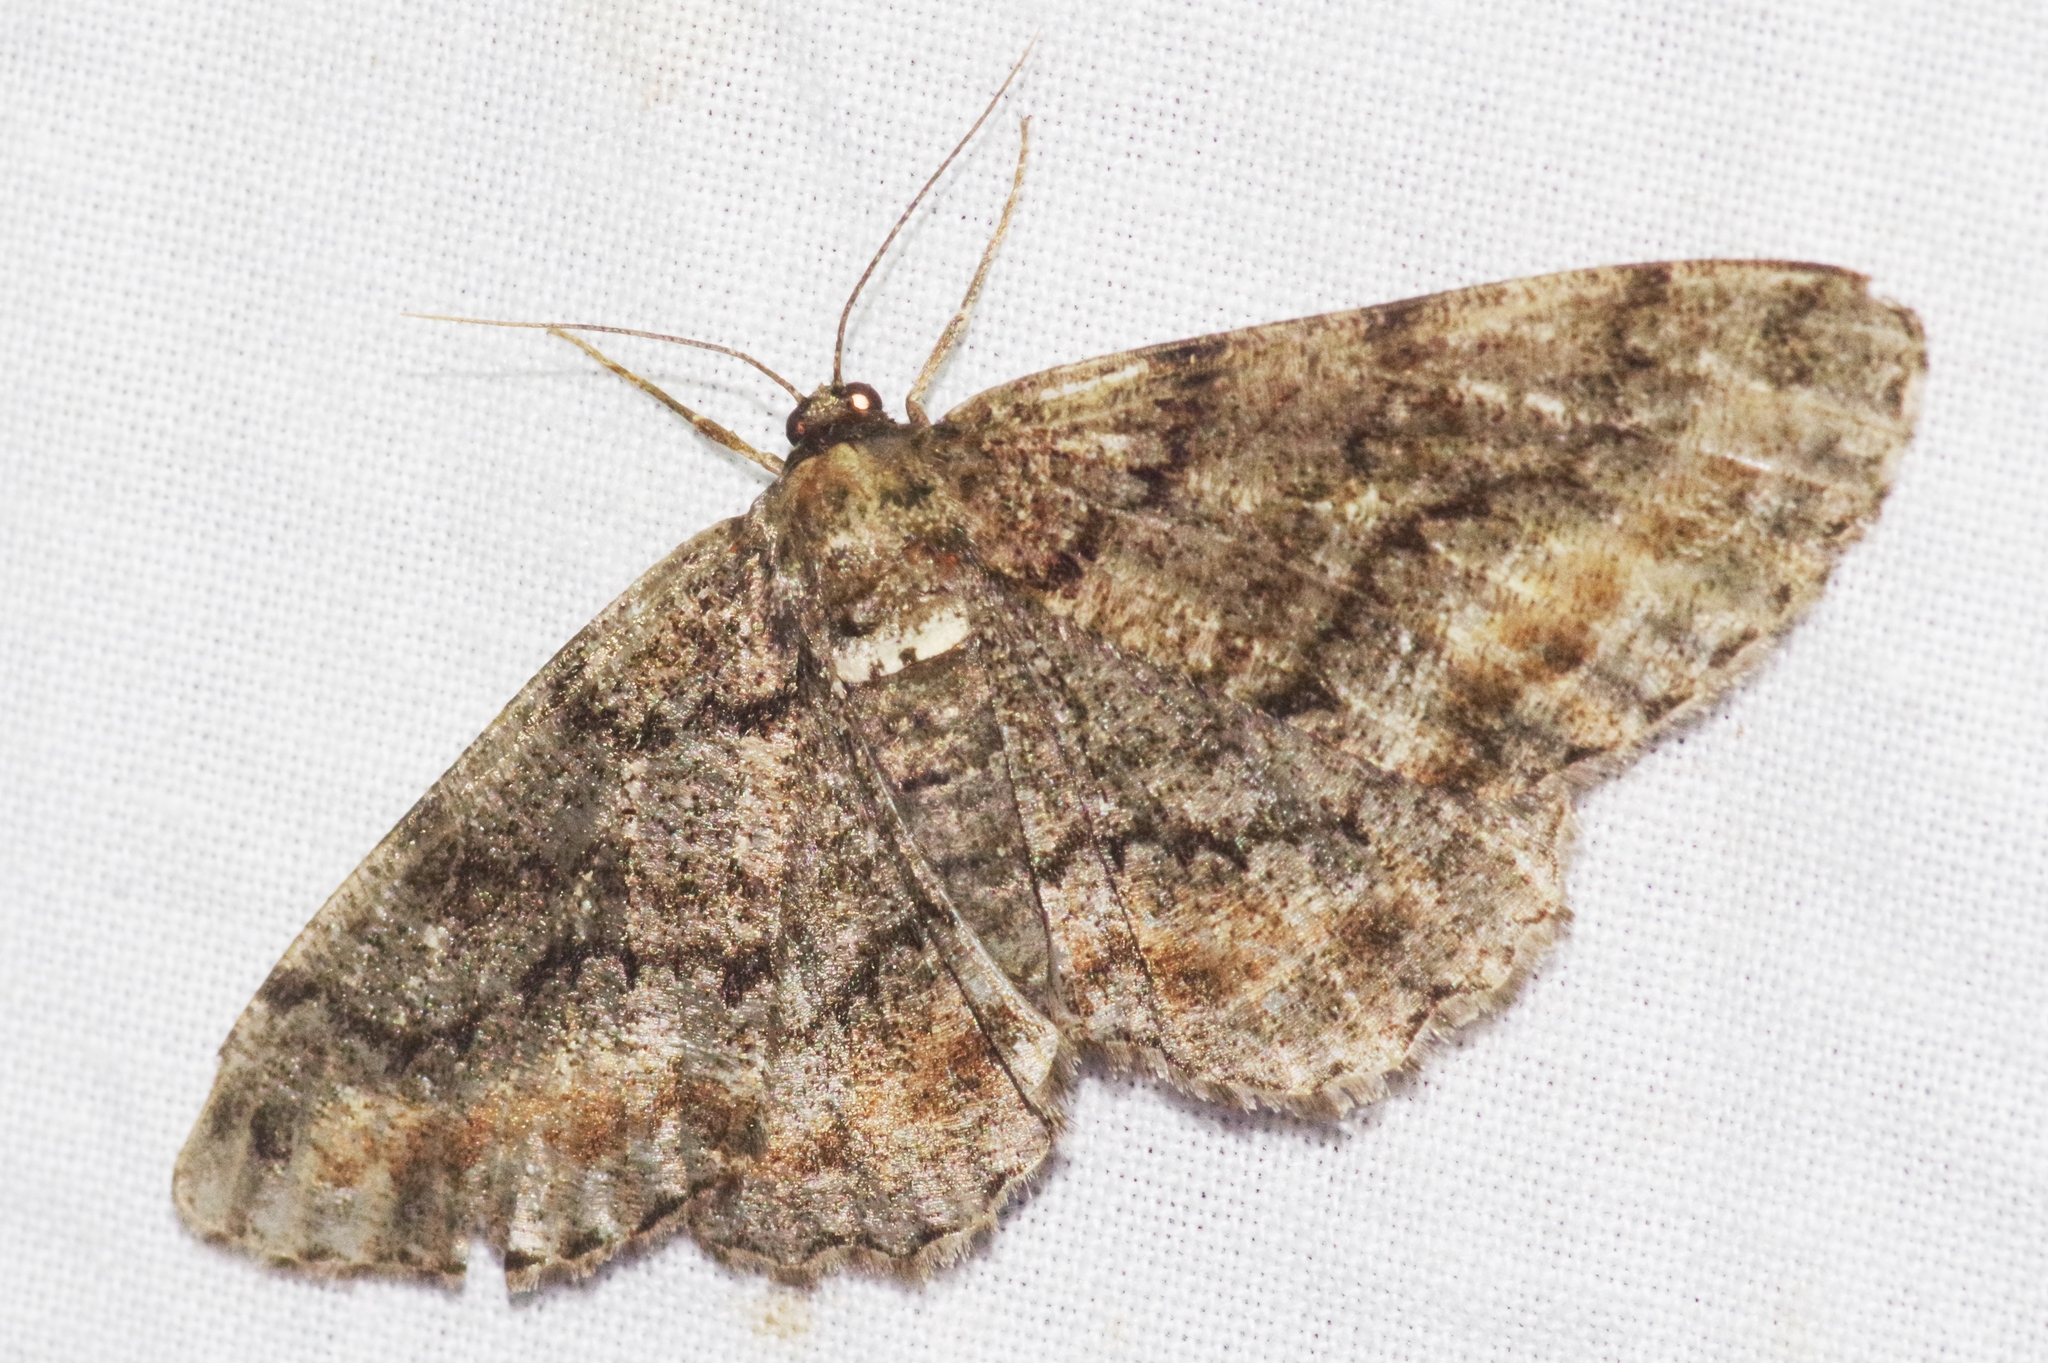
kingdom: Animalia
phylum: Arthropoda
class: Insecta
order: Lepidoptera
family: Geometridae
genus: Jankowskia
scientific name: Jankowskia pseudathleta
